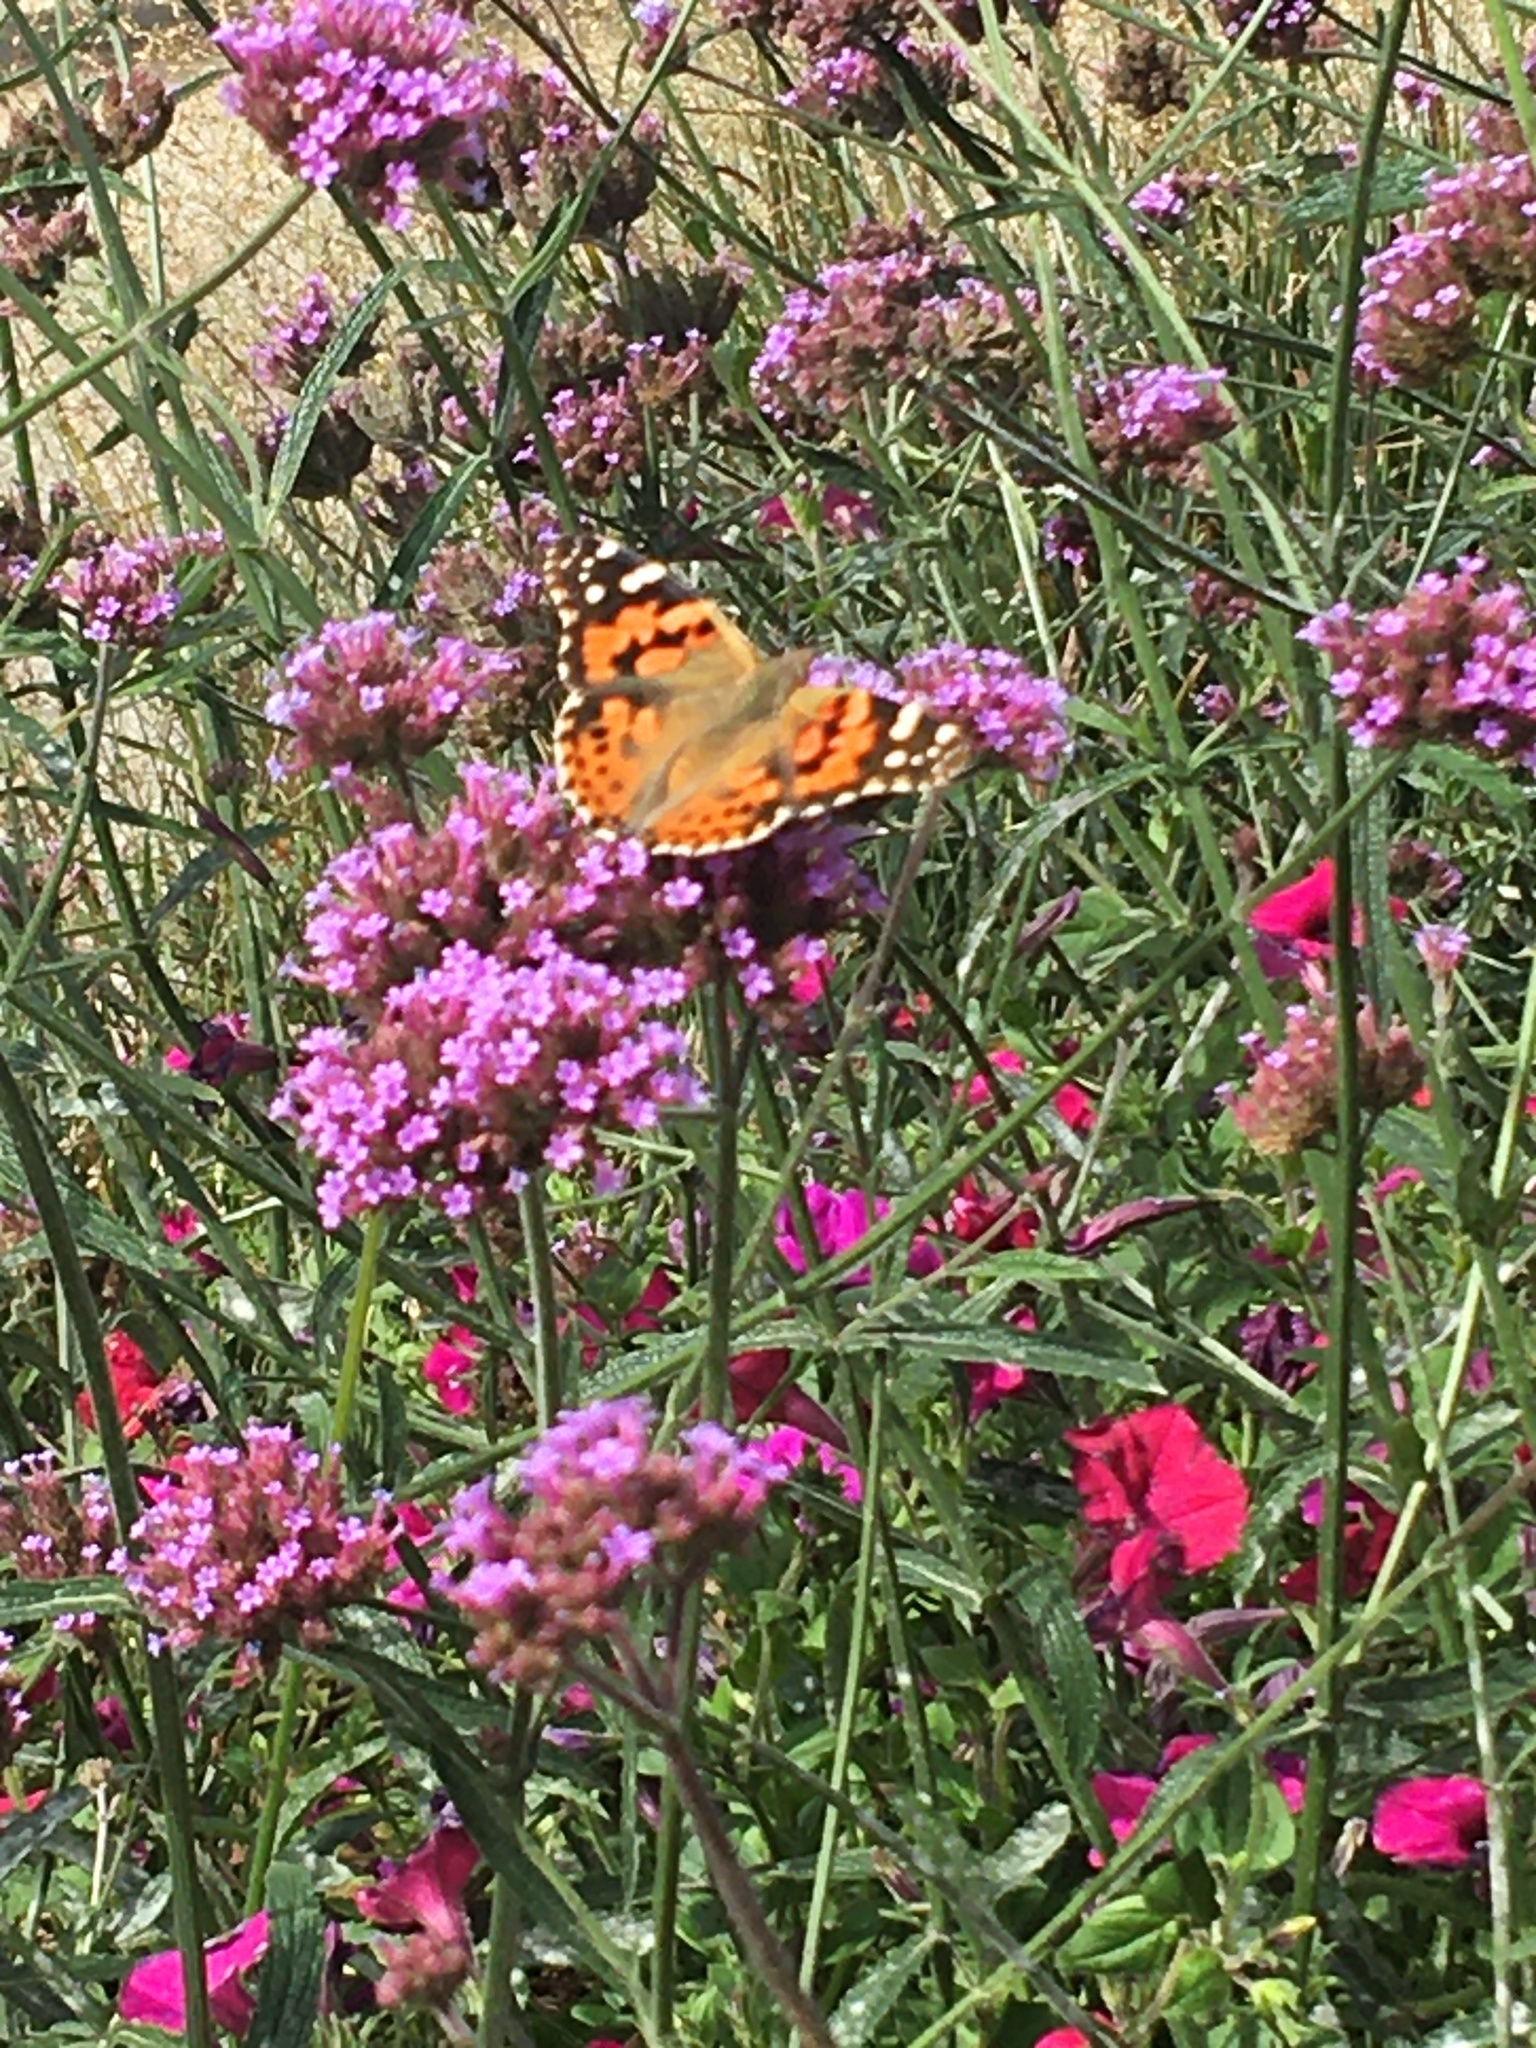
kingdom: Animalia
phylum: Arthropoda
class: Insecta
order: Lepidoptera
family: Nymphalidae
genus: Vanessa
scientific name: Vanessa cardui
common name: Painted lady
